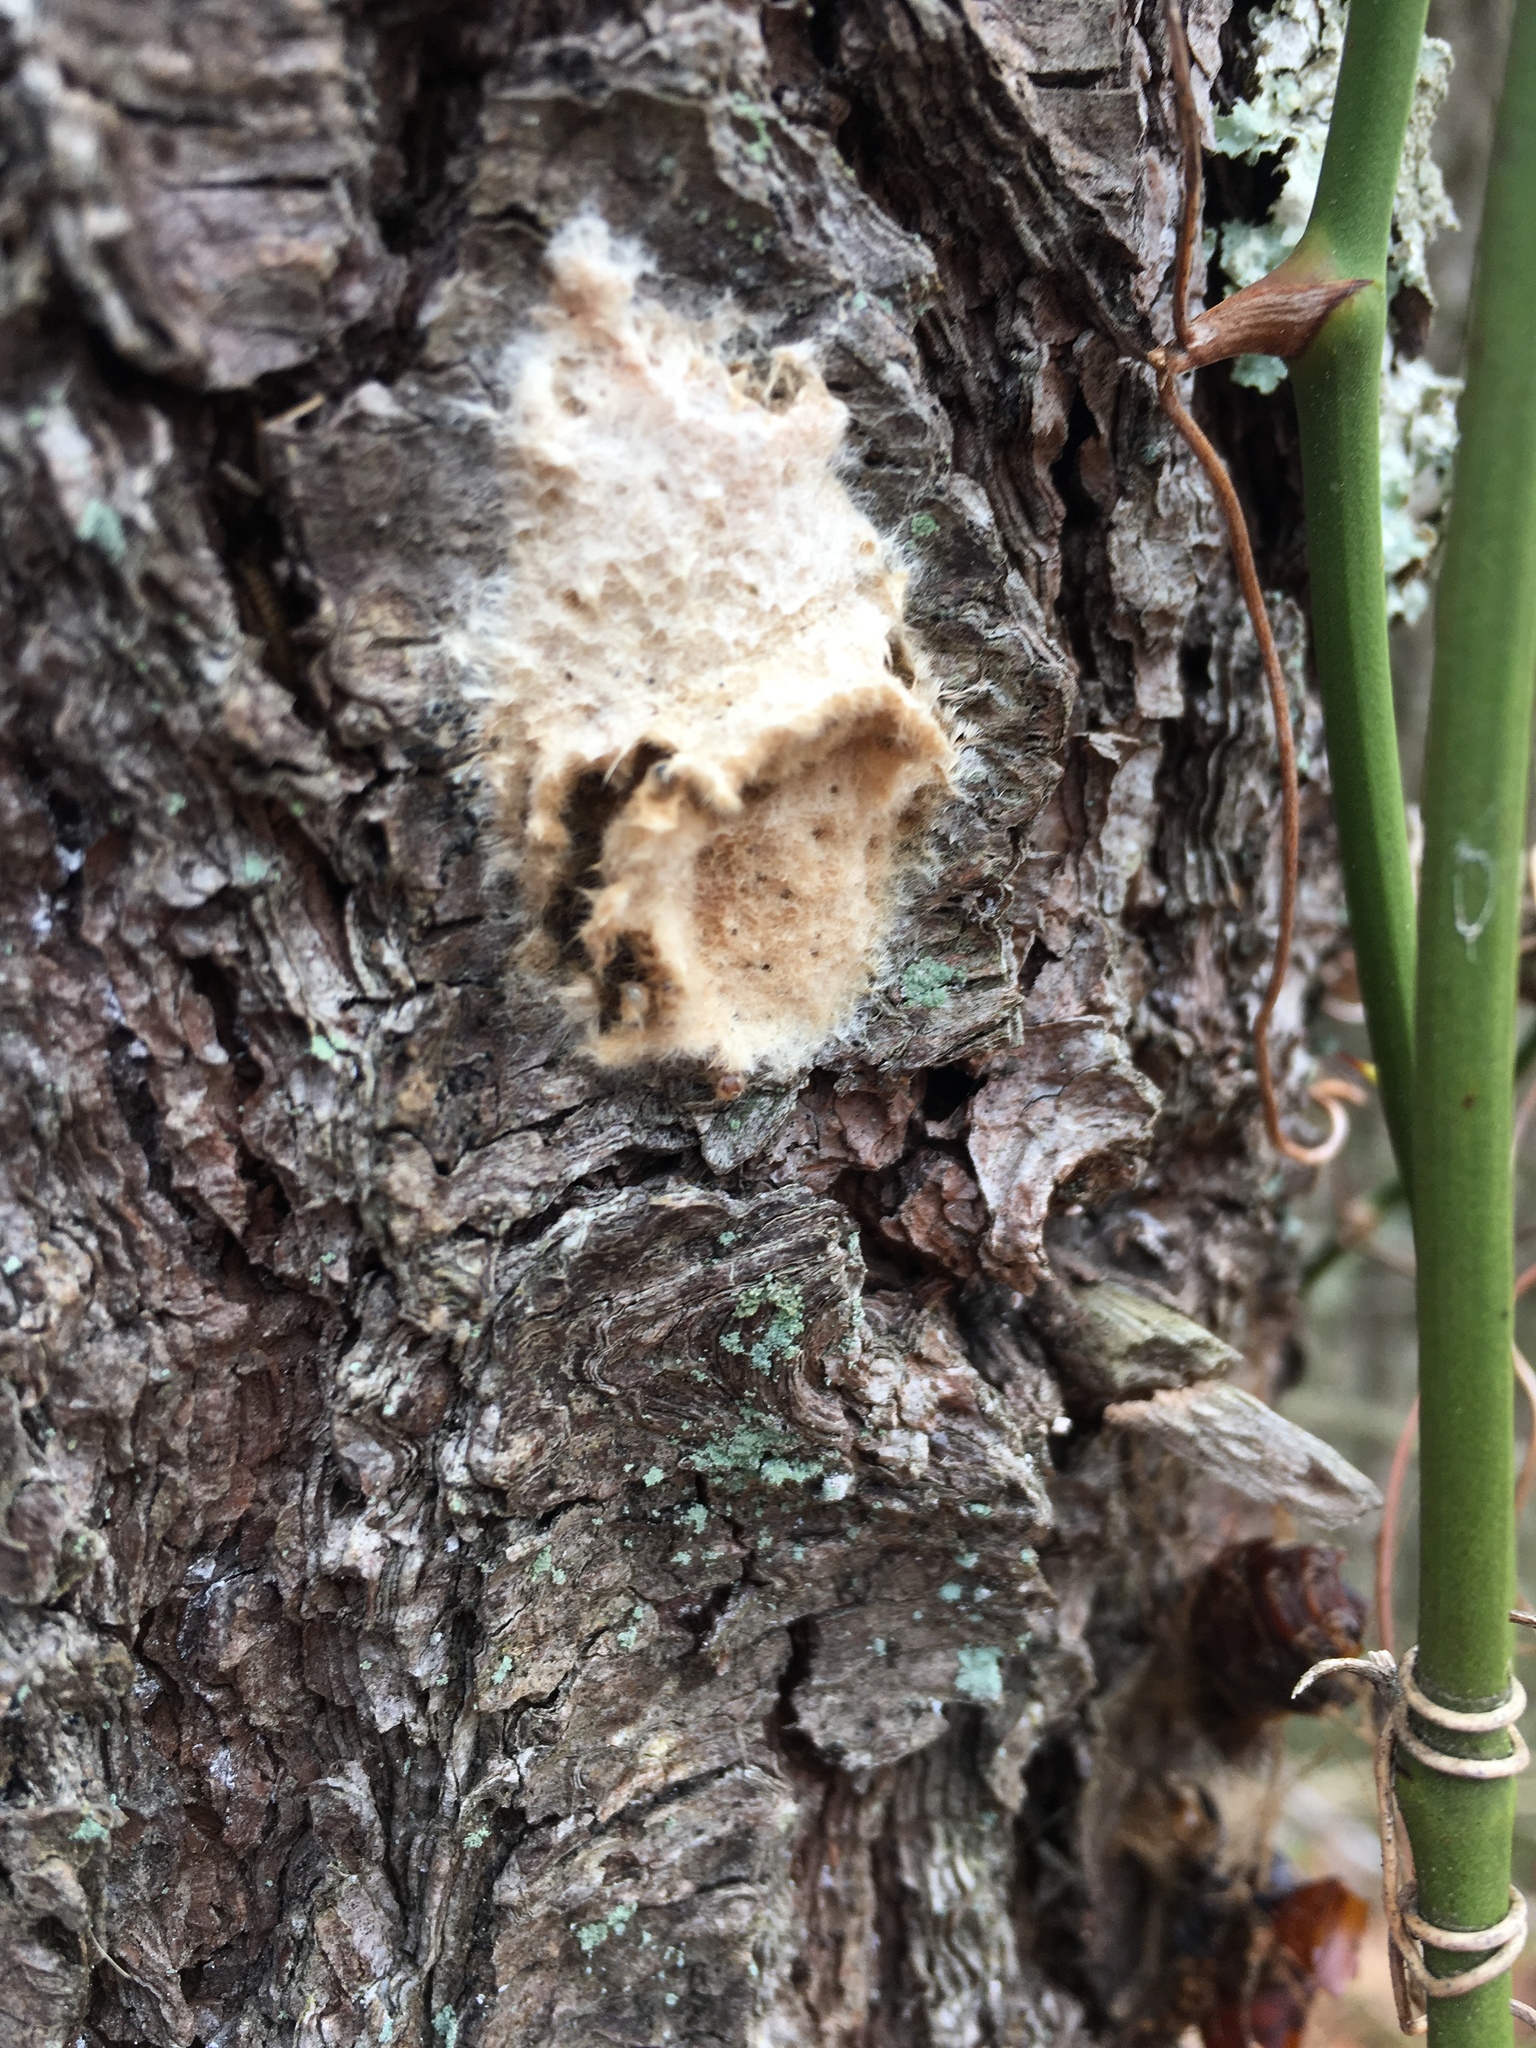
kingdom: Animalia
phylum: Arthropoda
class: Insecta
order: Lepidoptera
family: Erebidae
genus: Lymantria
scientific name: Lymantria dispar
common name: Gypsy moth
